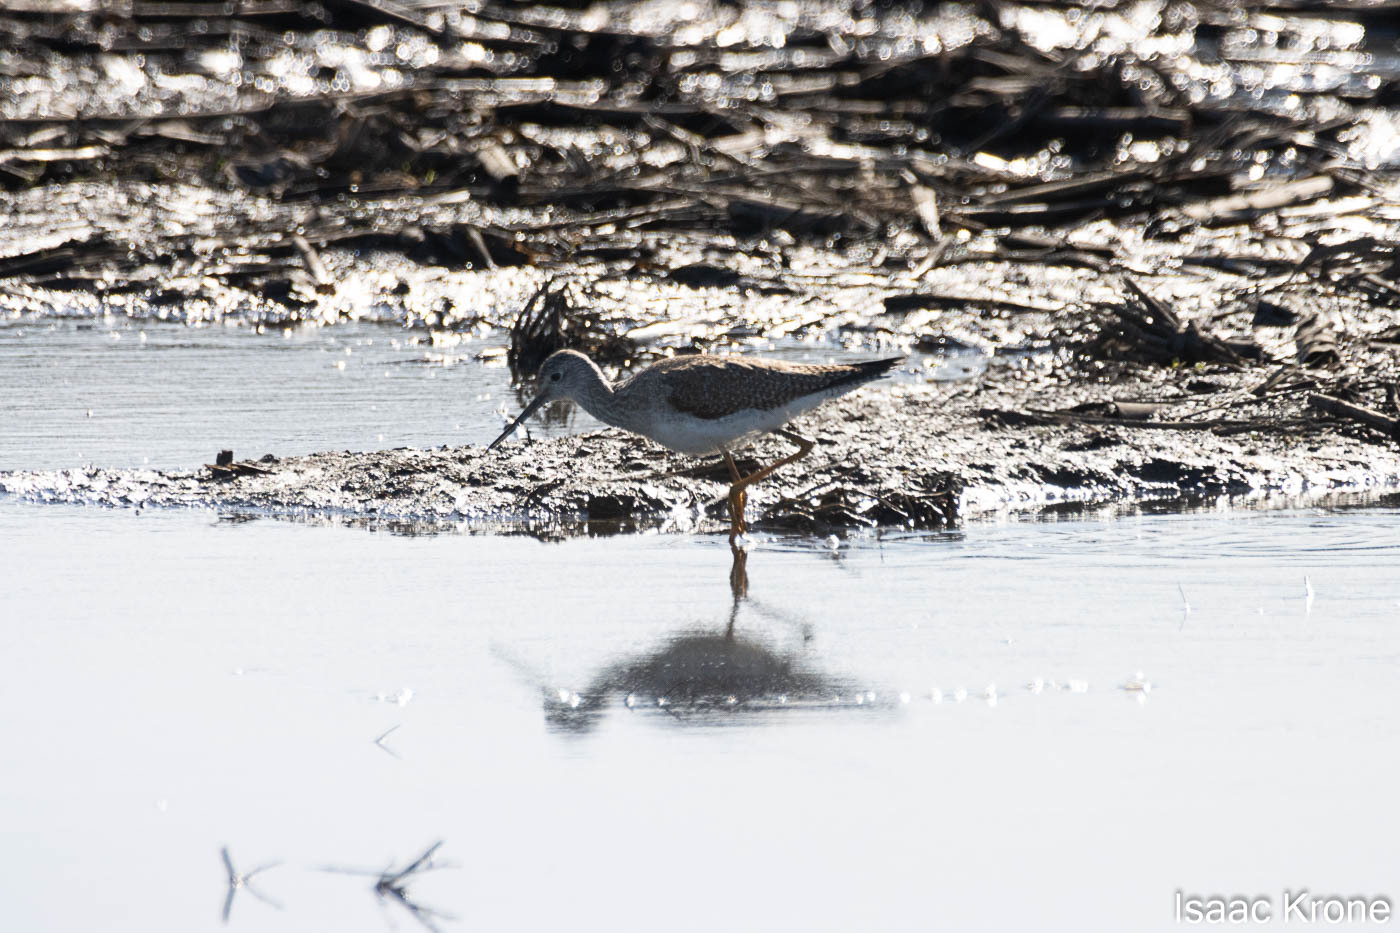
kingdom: Animalia
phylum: Chordata
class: Aves
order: Charadriiformes
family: Scolopacidae
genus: Tringa
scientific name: Tringa melanoleuca
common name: Greater yellowlegs
